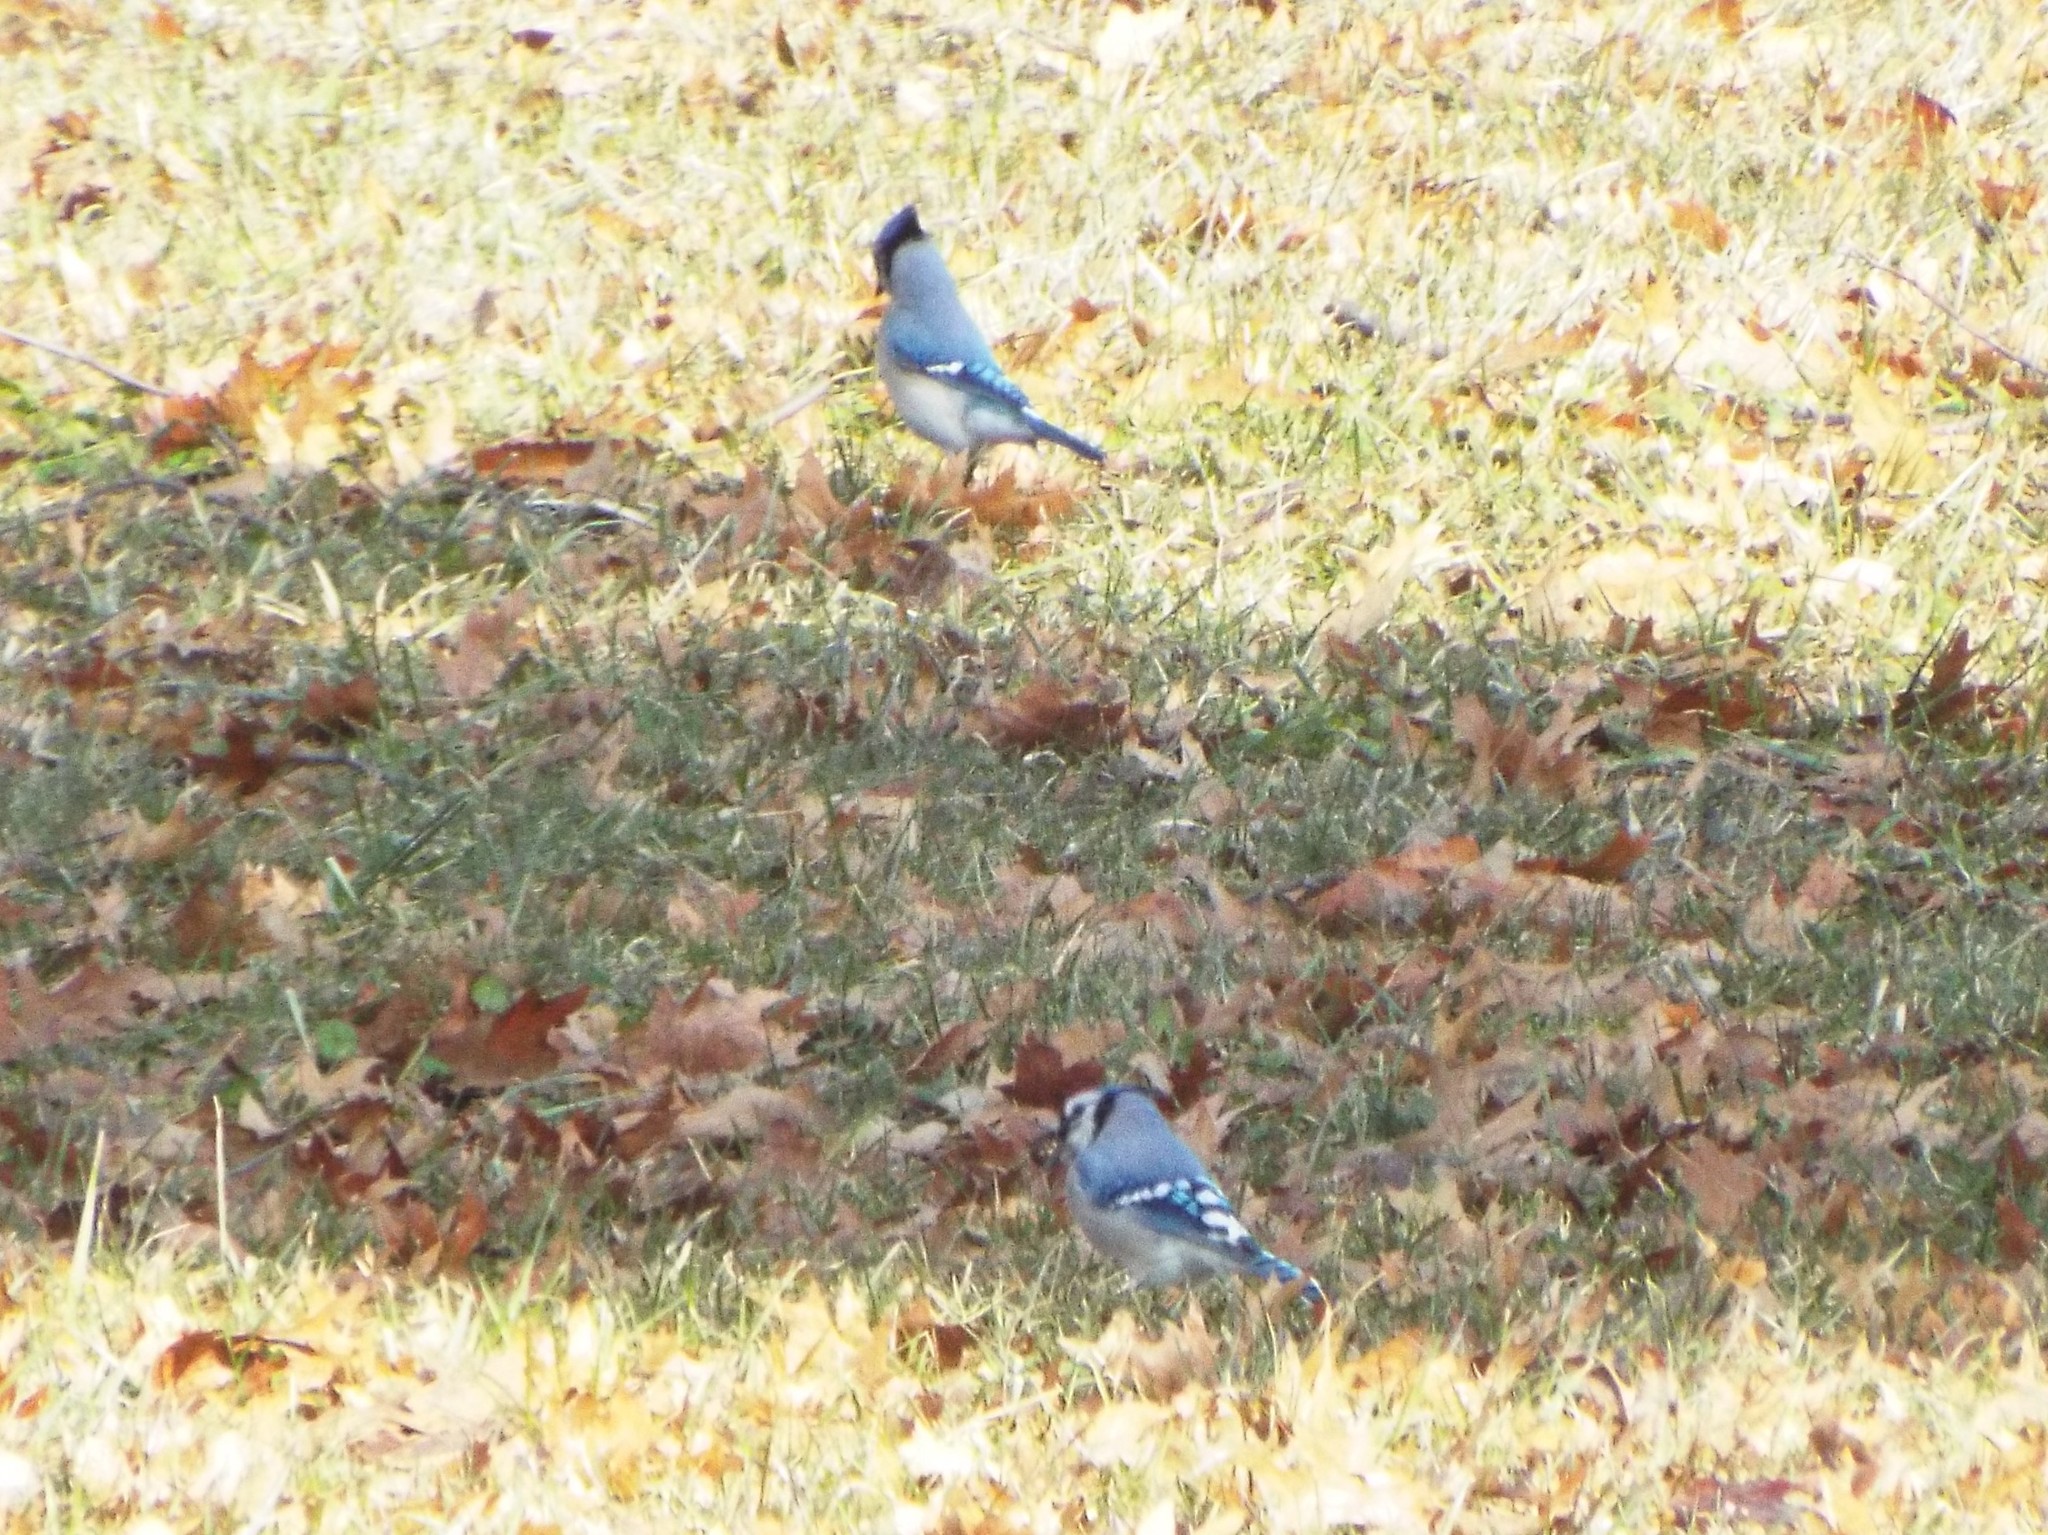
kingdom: Animalia
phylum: Chordata
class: Aves
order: Passeriformes
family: Corvidae
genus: Cyanocitta
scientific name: Cyanocitta cristata
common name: Blue jay
